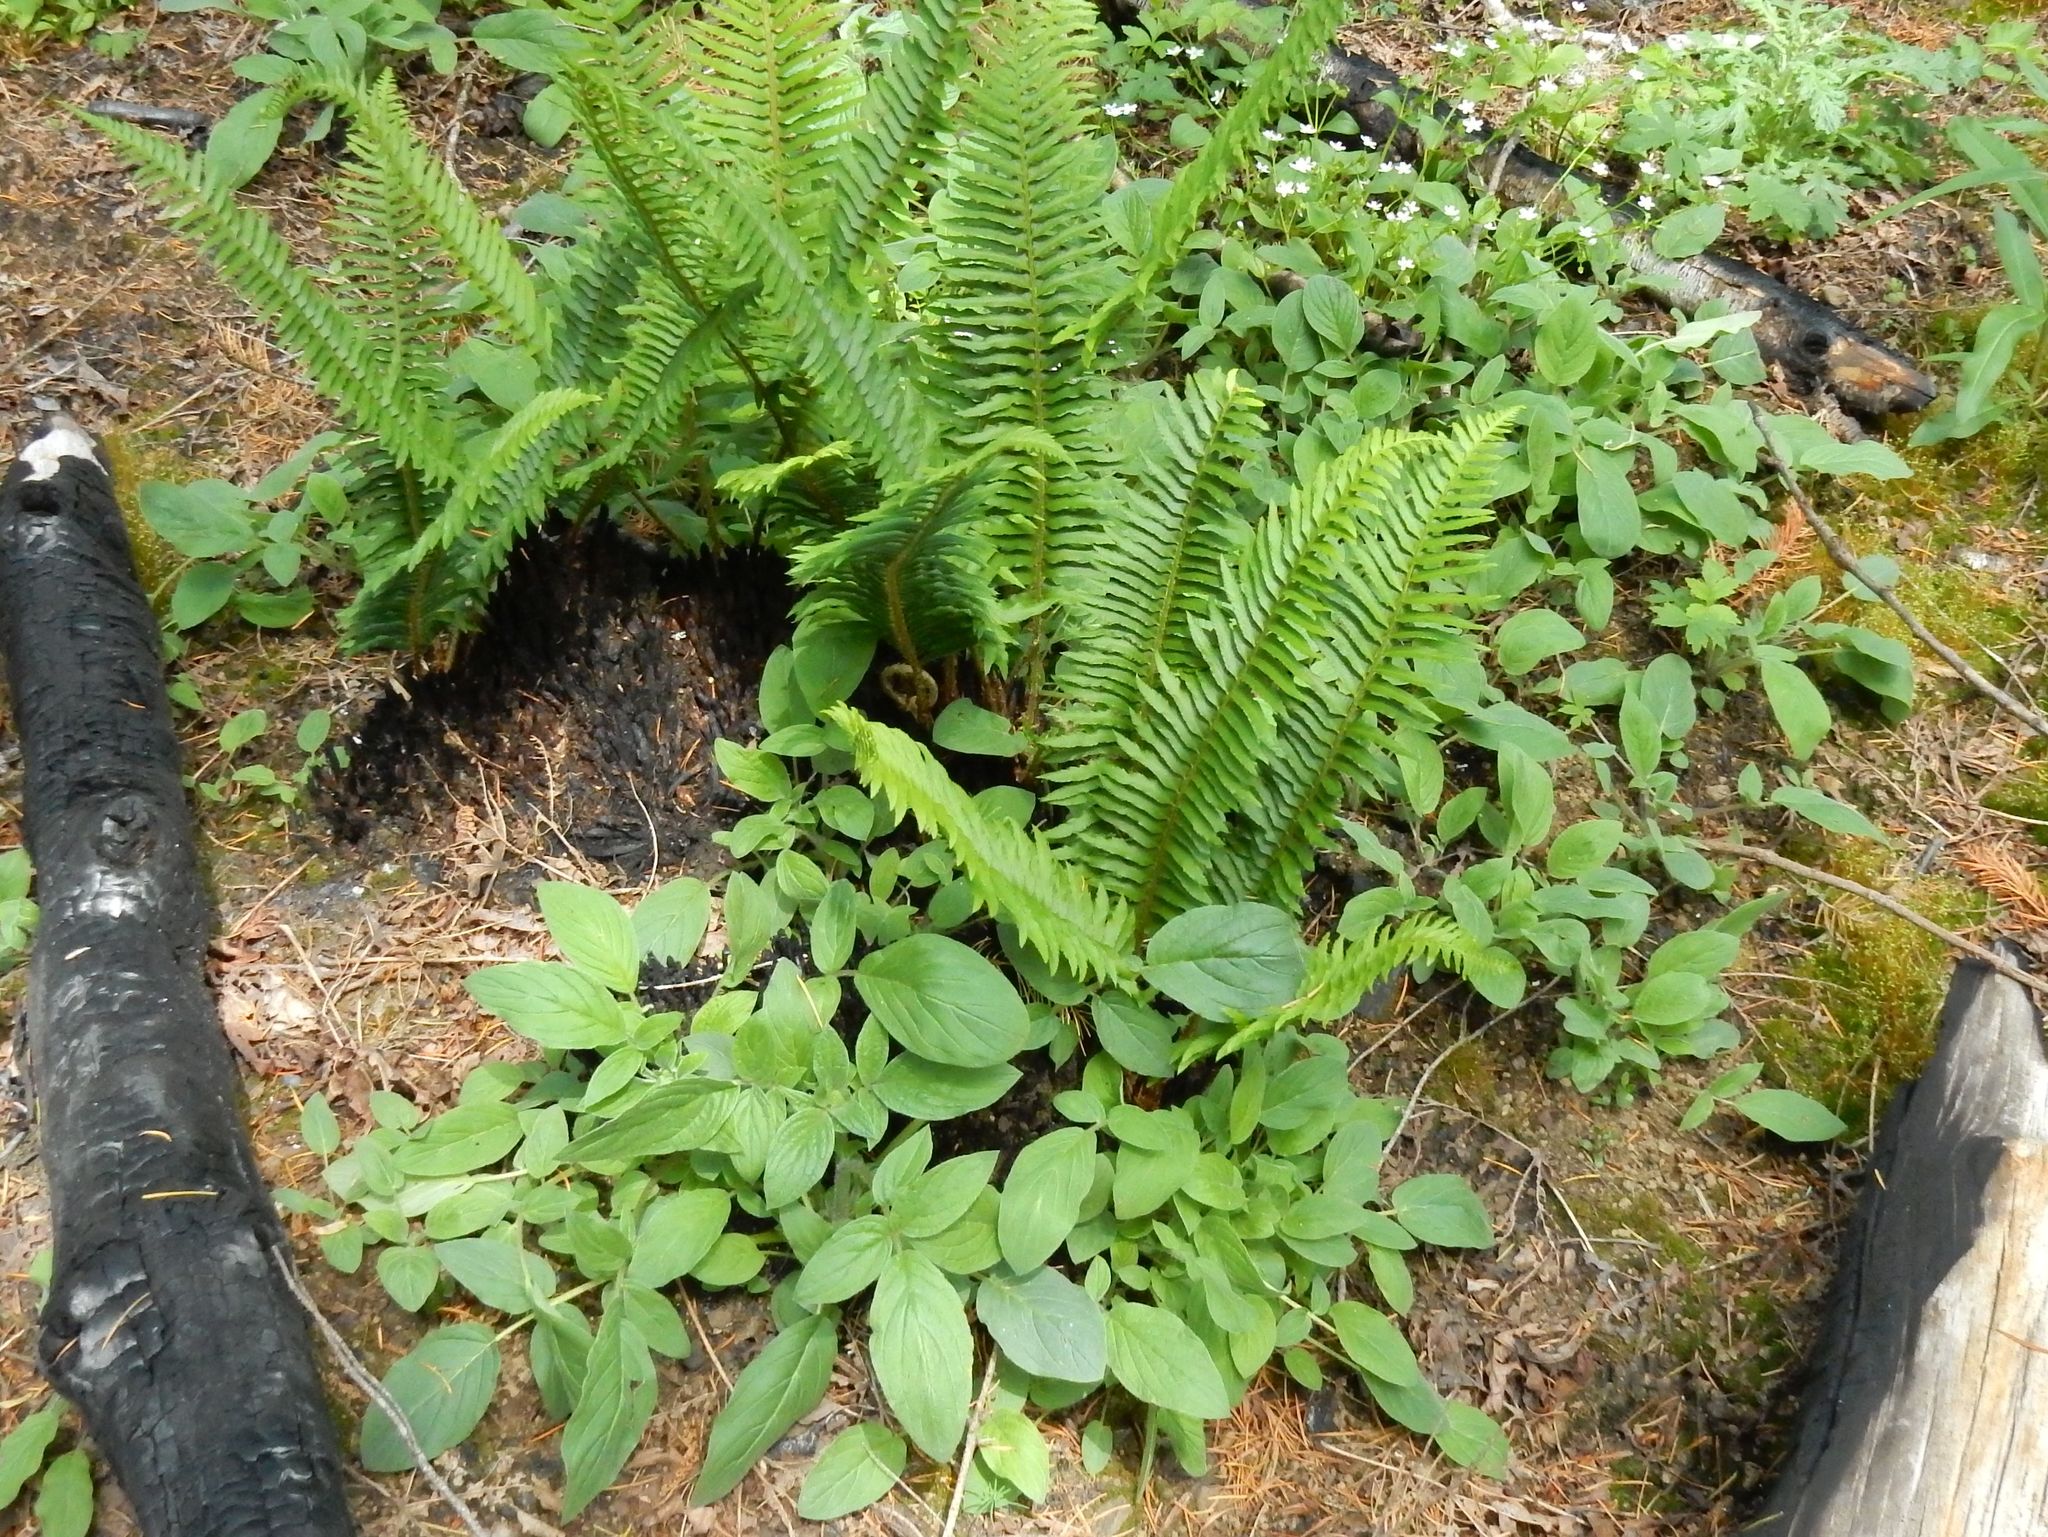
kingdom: Plantae
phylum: Tracheophyta
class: Magnoliopsida
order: Boraginales
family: Hydrophyllaceae
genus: Phacelia
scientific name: Phacelia nemoralis
